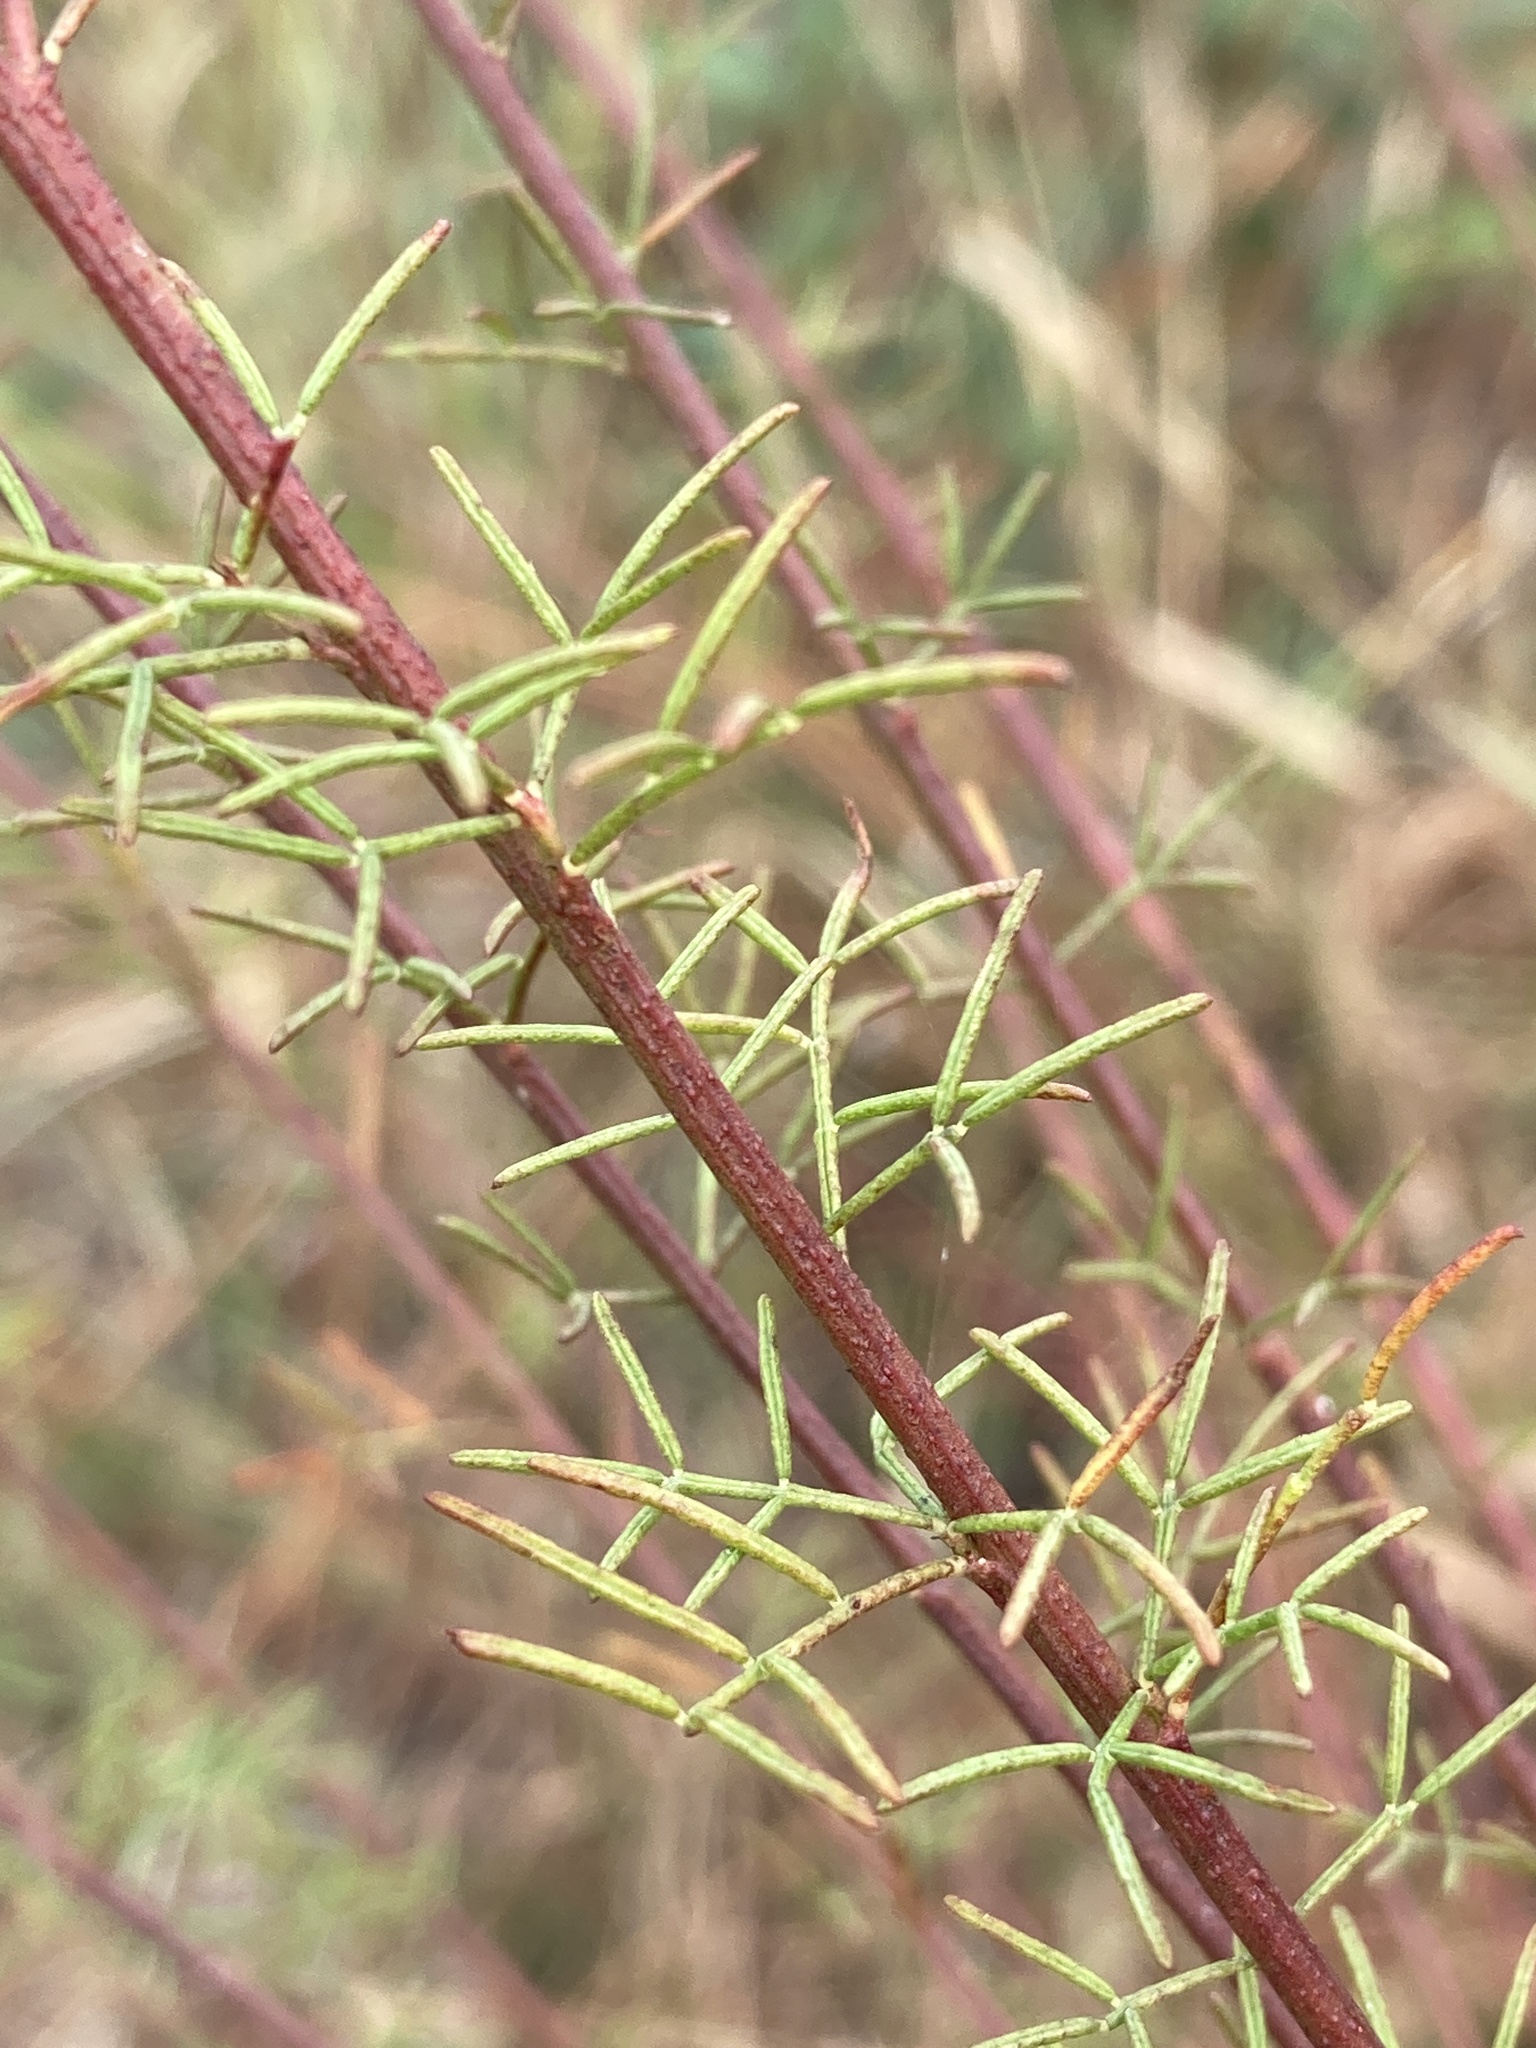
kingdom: Plantae
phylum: Tracheophyta
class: Magnoliopsida
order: Fabales
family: Fabaceae
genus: Dalea
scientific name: Dalea pinnata
